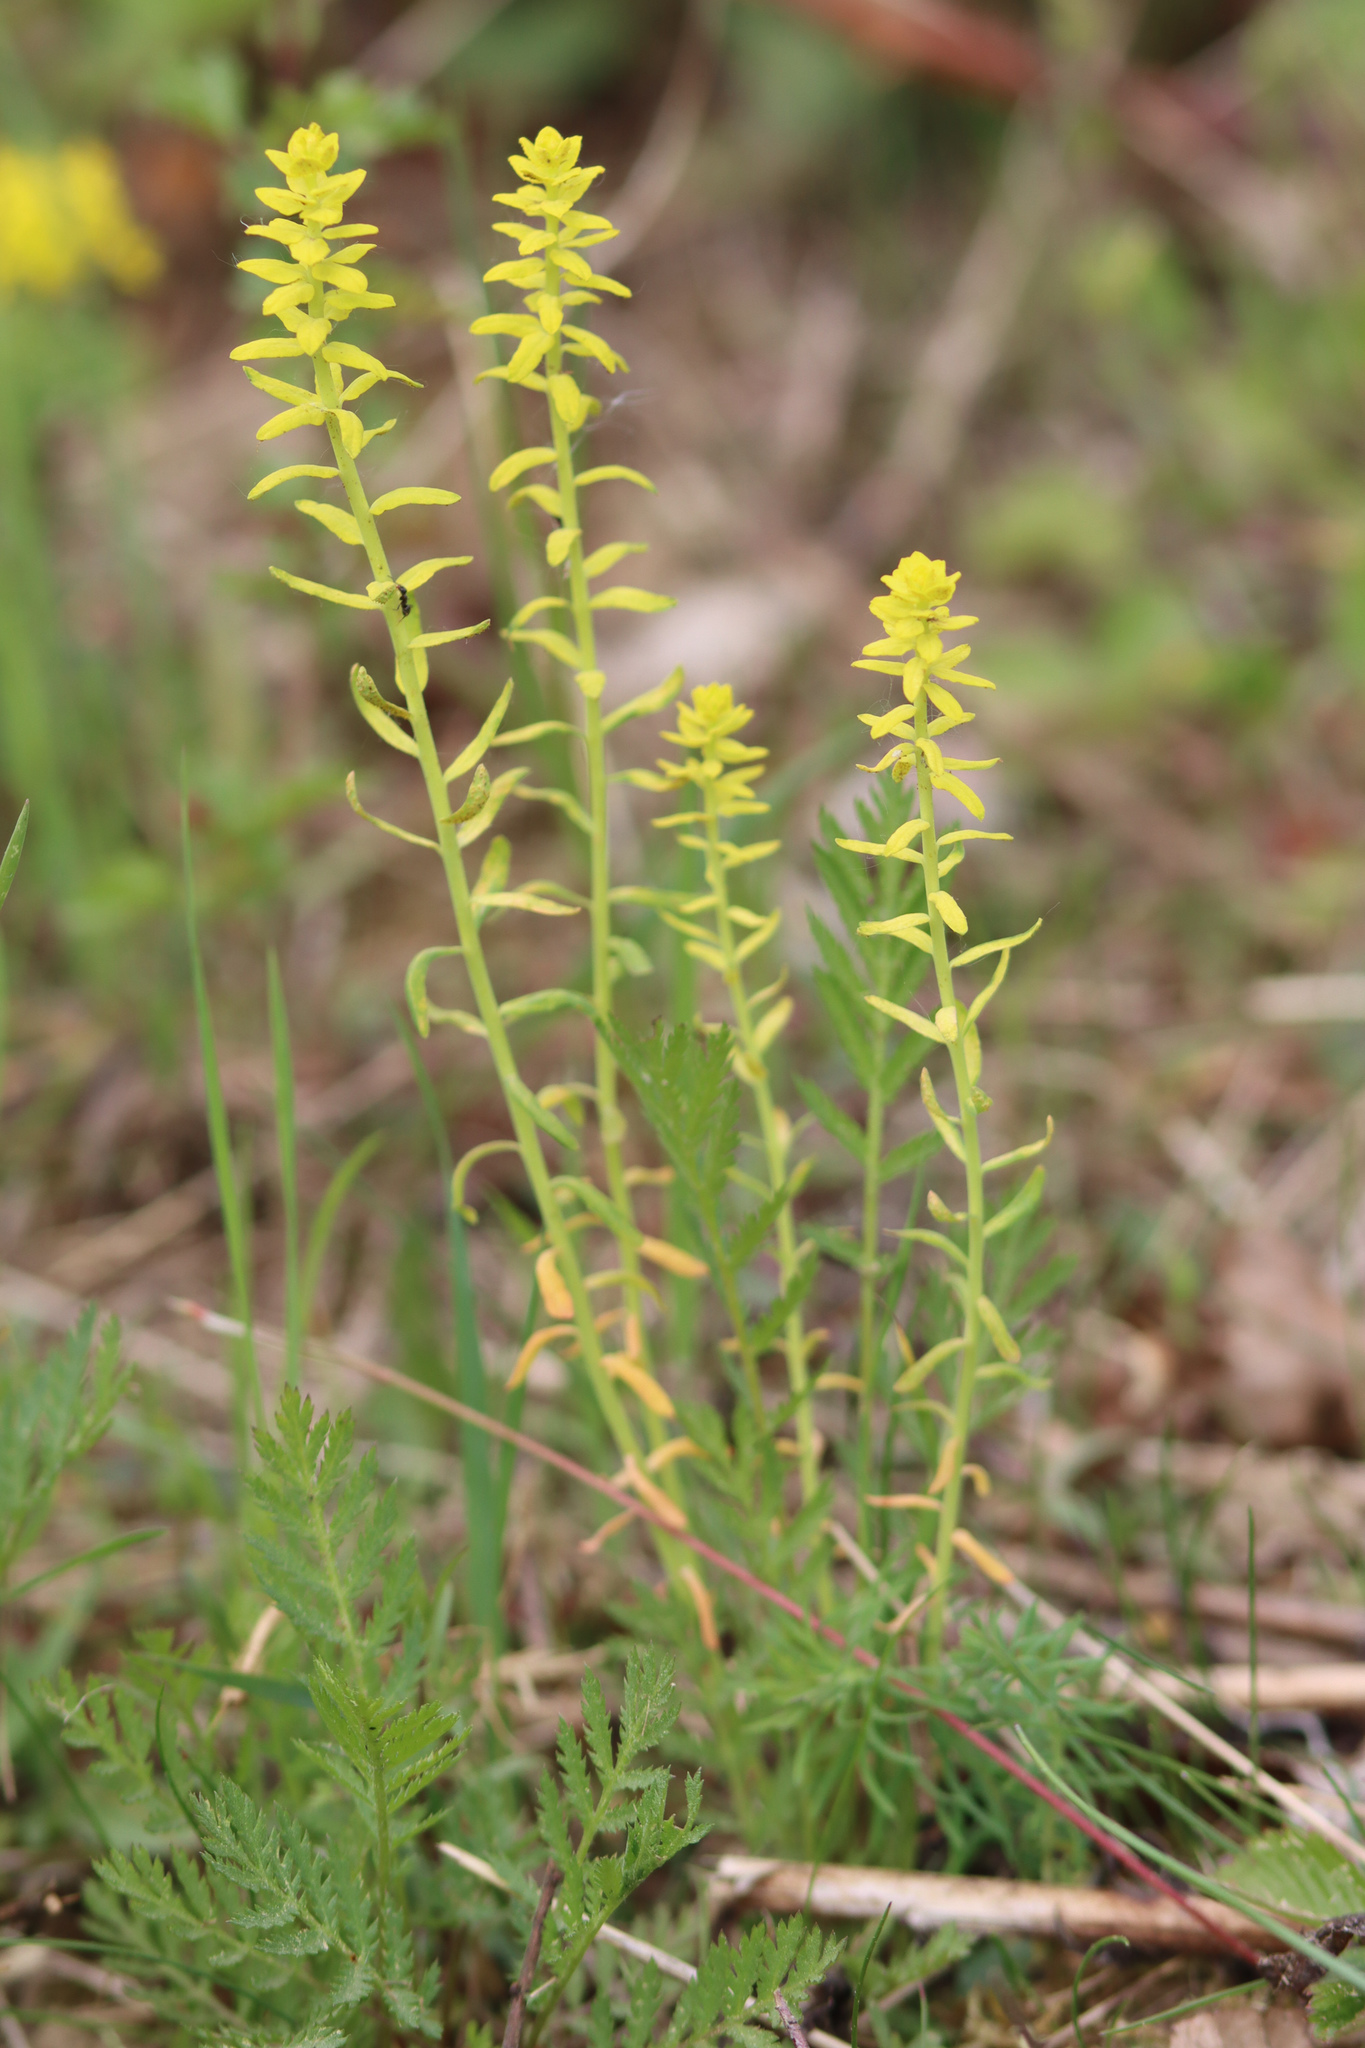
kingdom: Plantae
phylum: Tracheophyta
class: Magnoliopsida
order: Malpighiales
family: Euphorbiaceae
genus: Euphorbia
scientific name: Euphorbia cyparissias
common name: Cypress spurge
